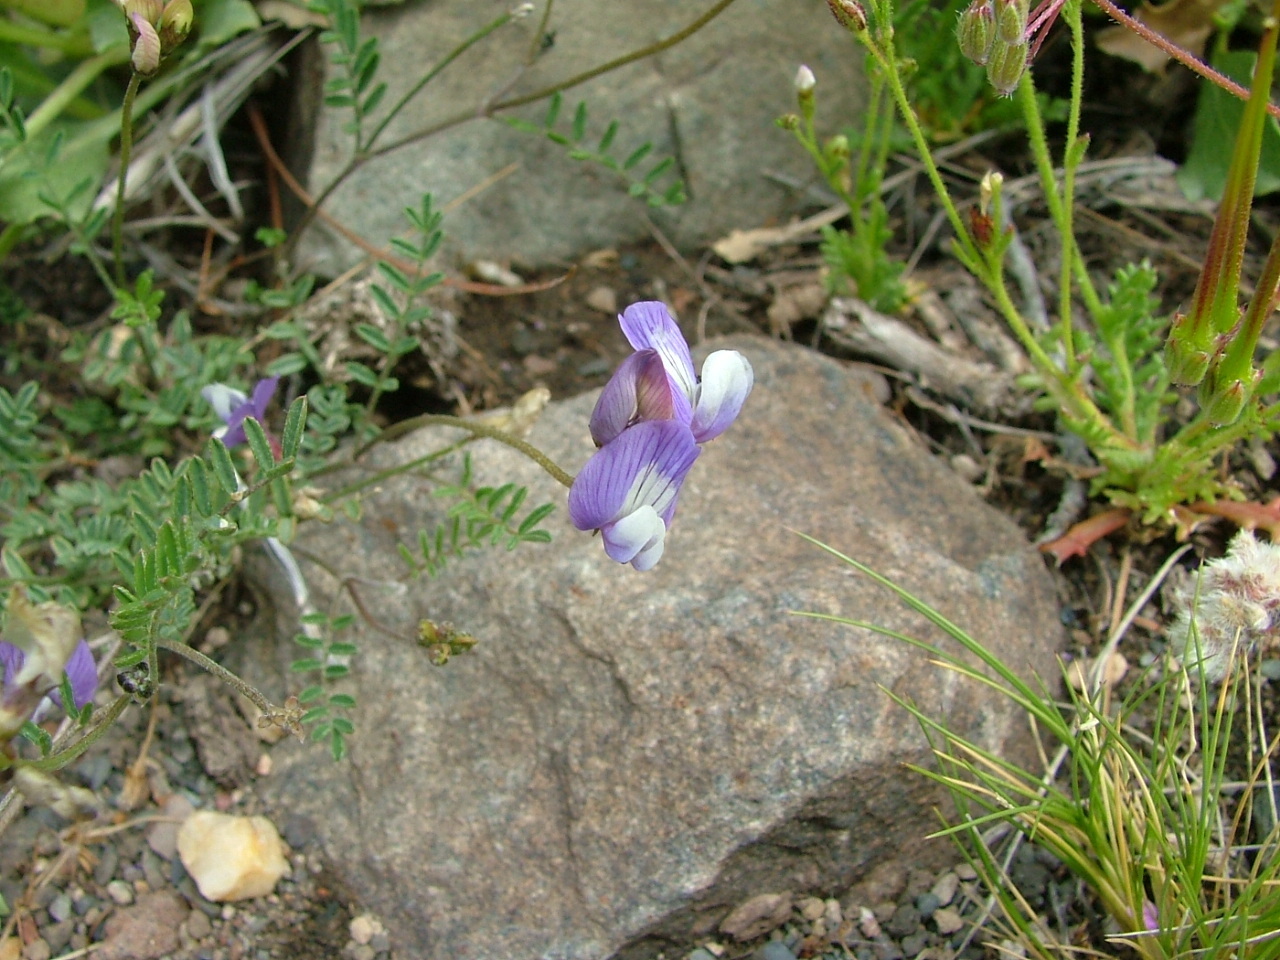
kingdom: Plantae
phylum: Tracheophyta
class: Magnoliopsida
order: Fabales
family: Fabaceae
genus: Astragalus
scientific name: Astragalus cruckshanksii
